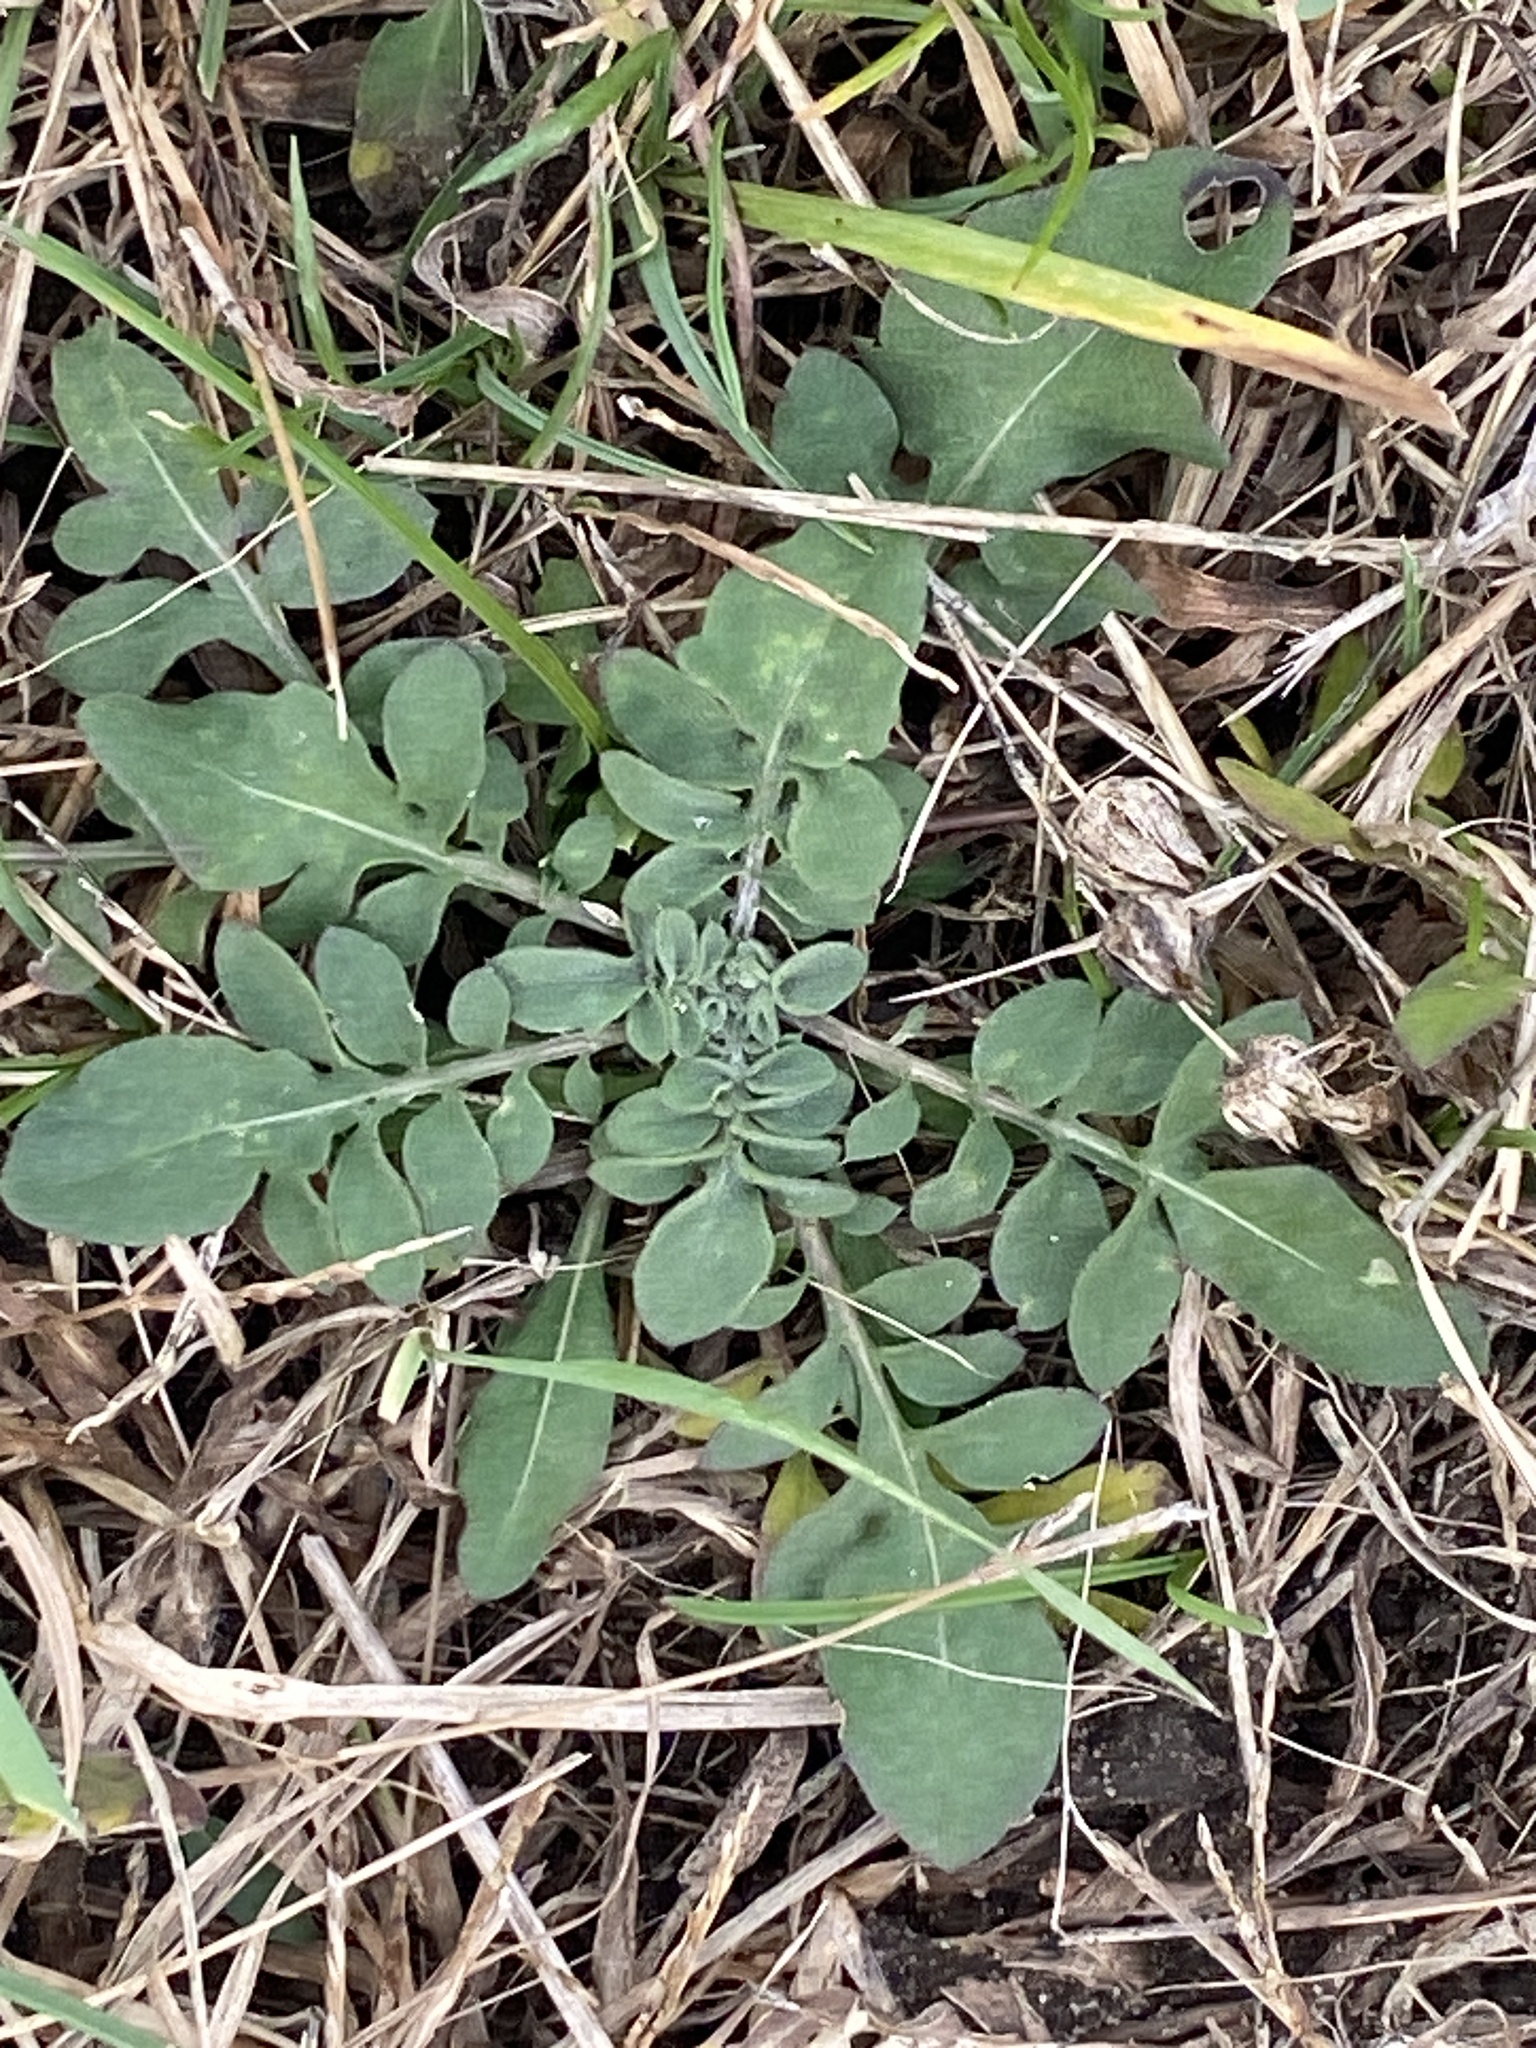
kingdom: Plantae
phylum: Tracheophyta
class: Magnoliopsida
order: Asterales
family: Asteraceae
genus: Centaurea
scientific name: Centaurea stoebe
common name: Spotted knapweed
